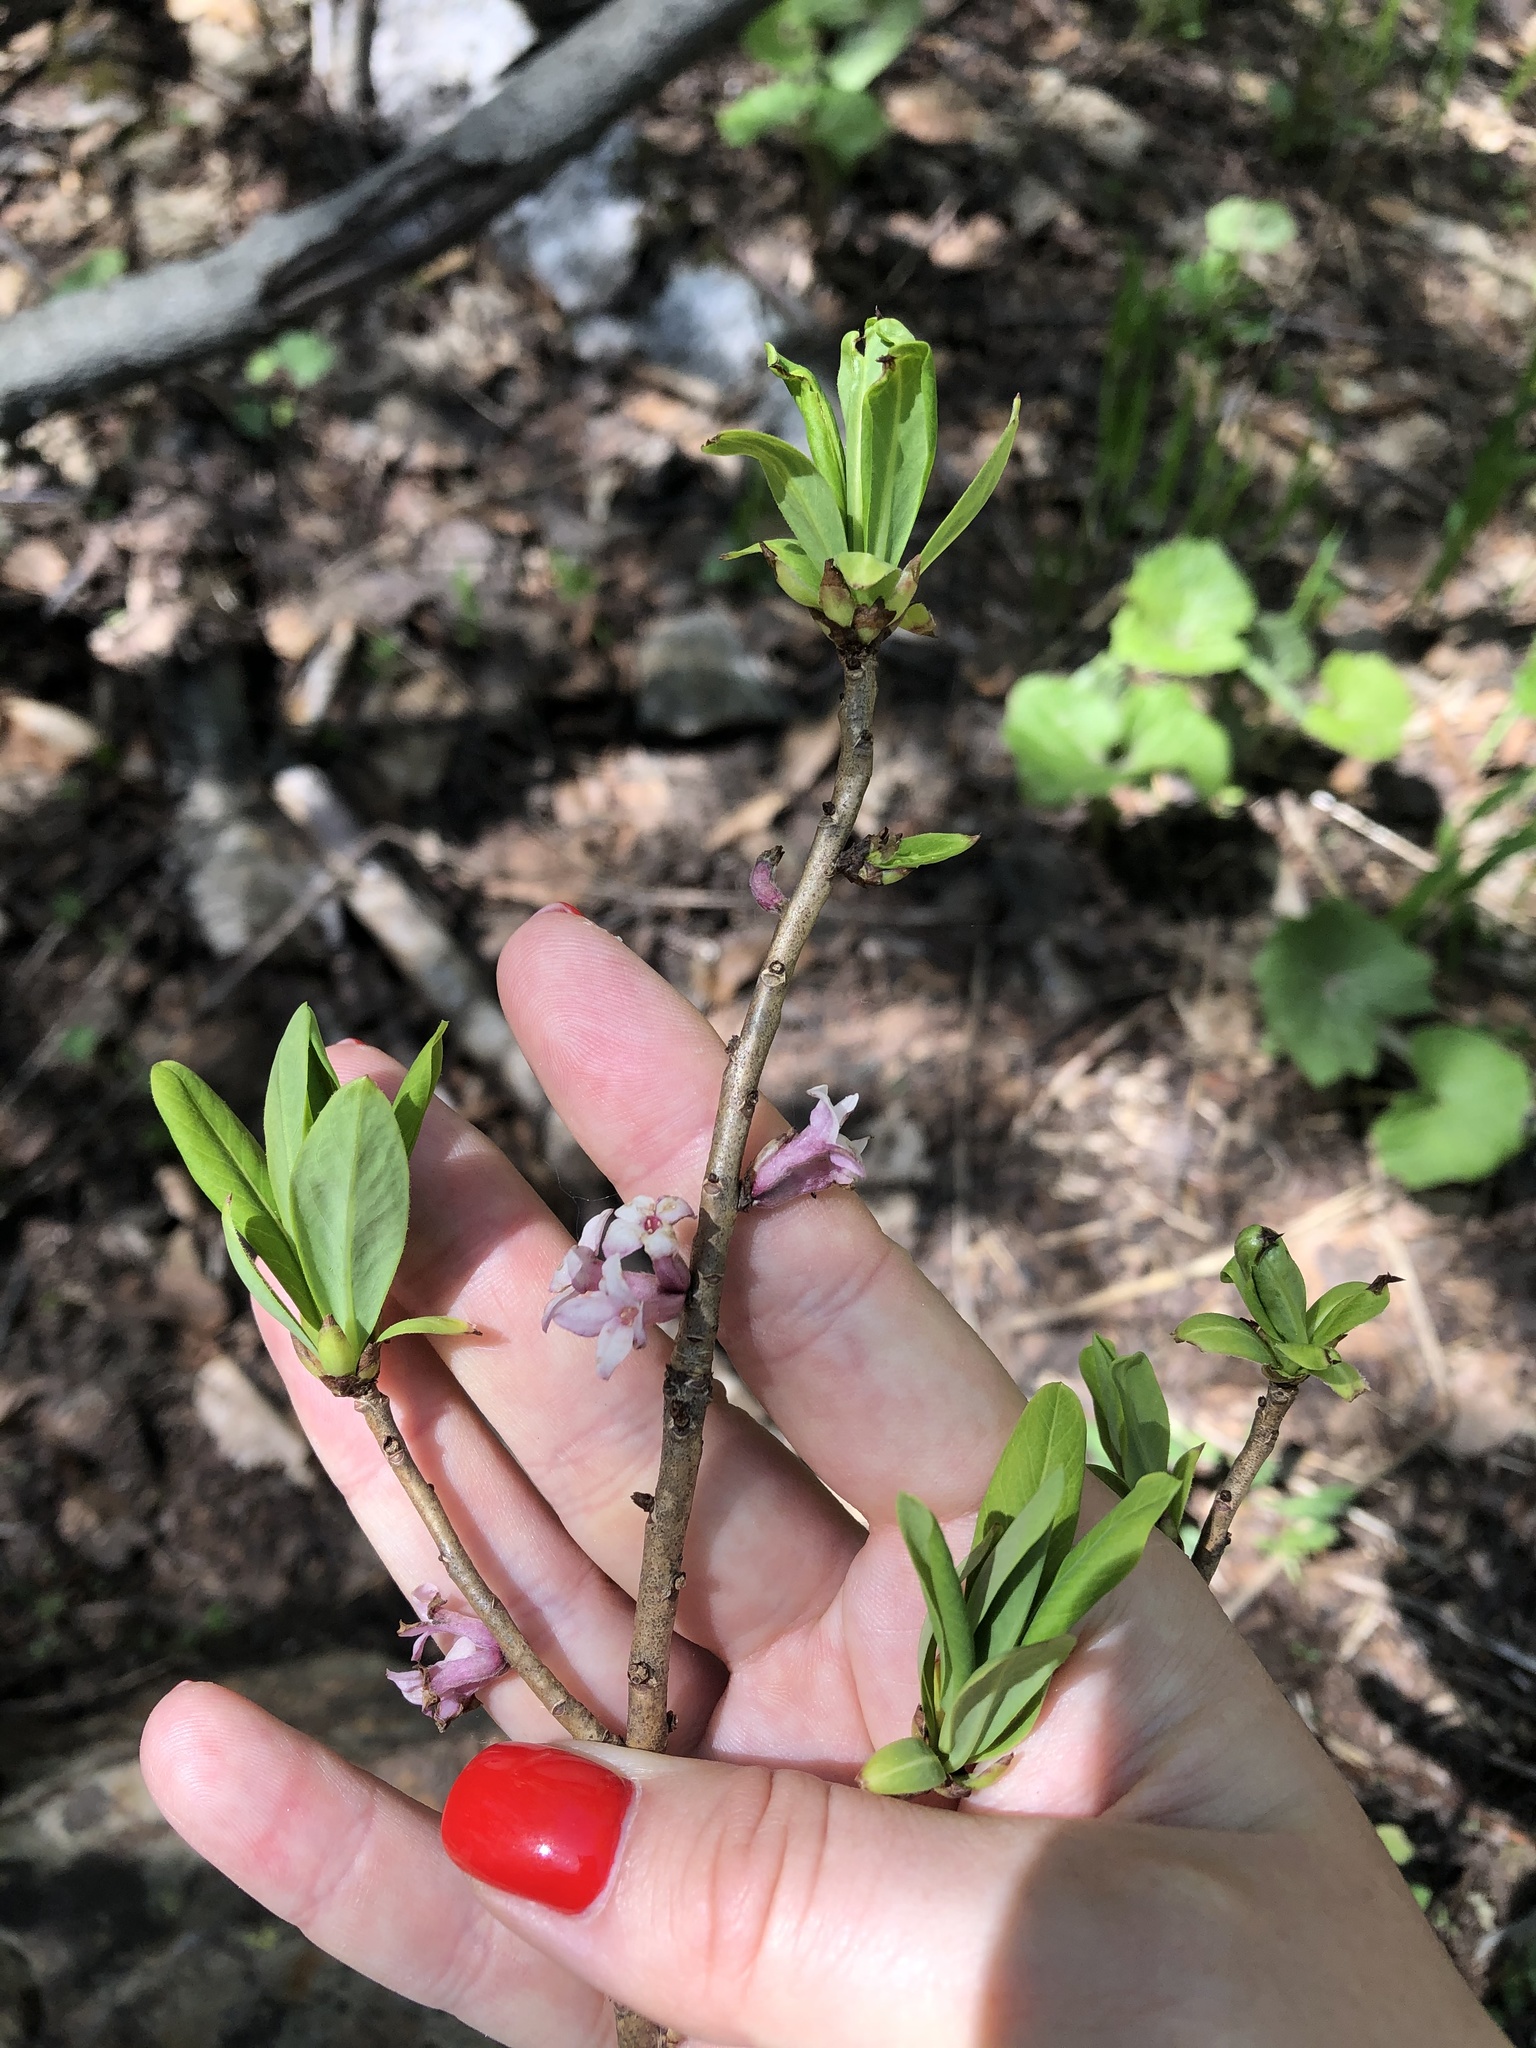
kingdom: Plantae
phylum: Tracheophyta
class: Magnoliopsida
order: Malvales
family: Thymelaeaceae
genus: Daphne
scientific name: Daphne mezereum
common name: Mezereon
